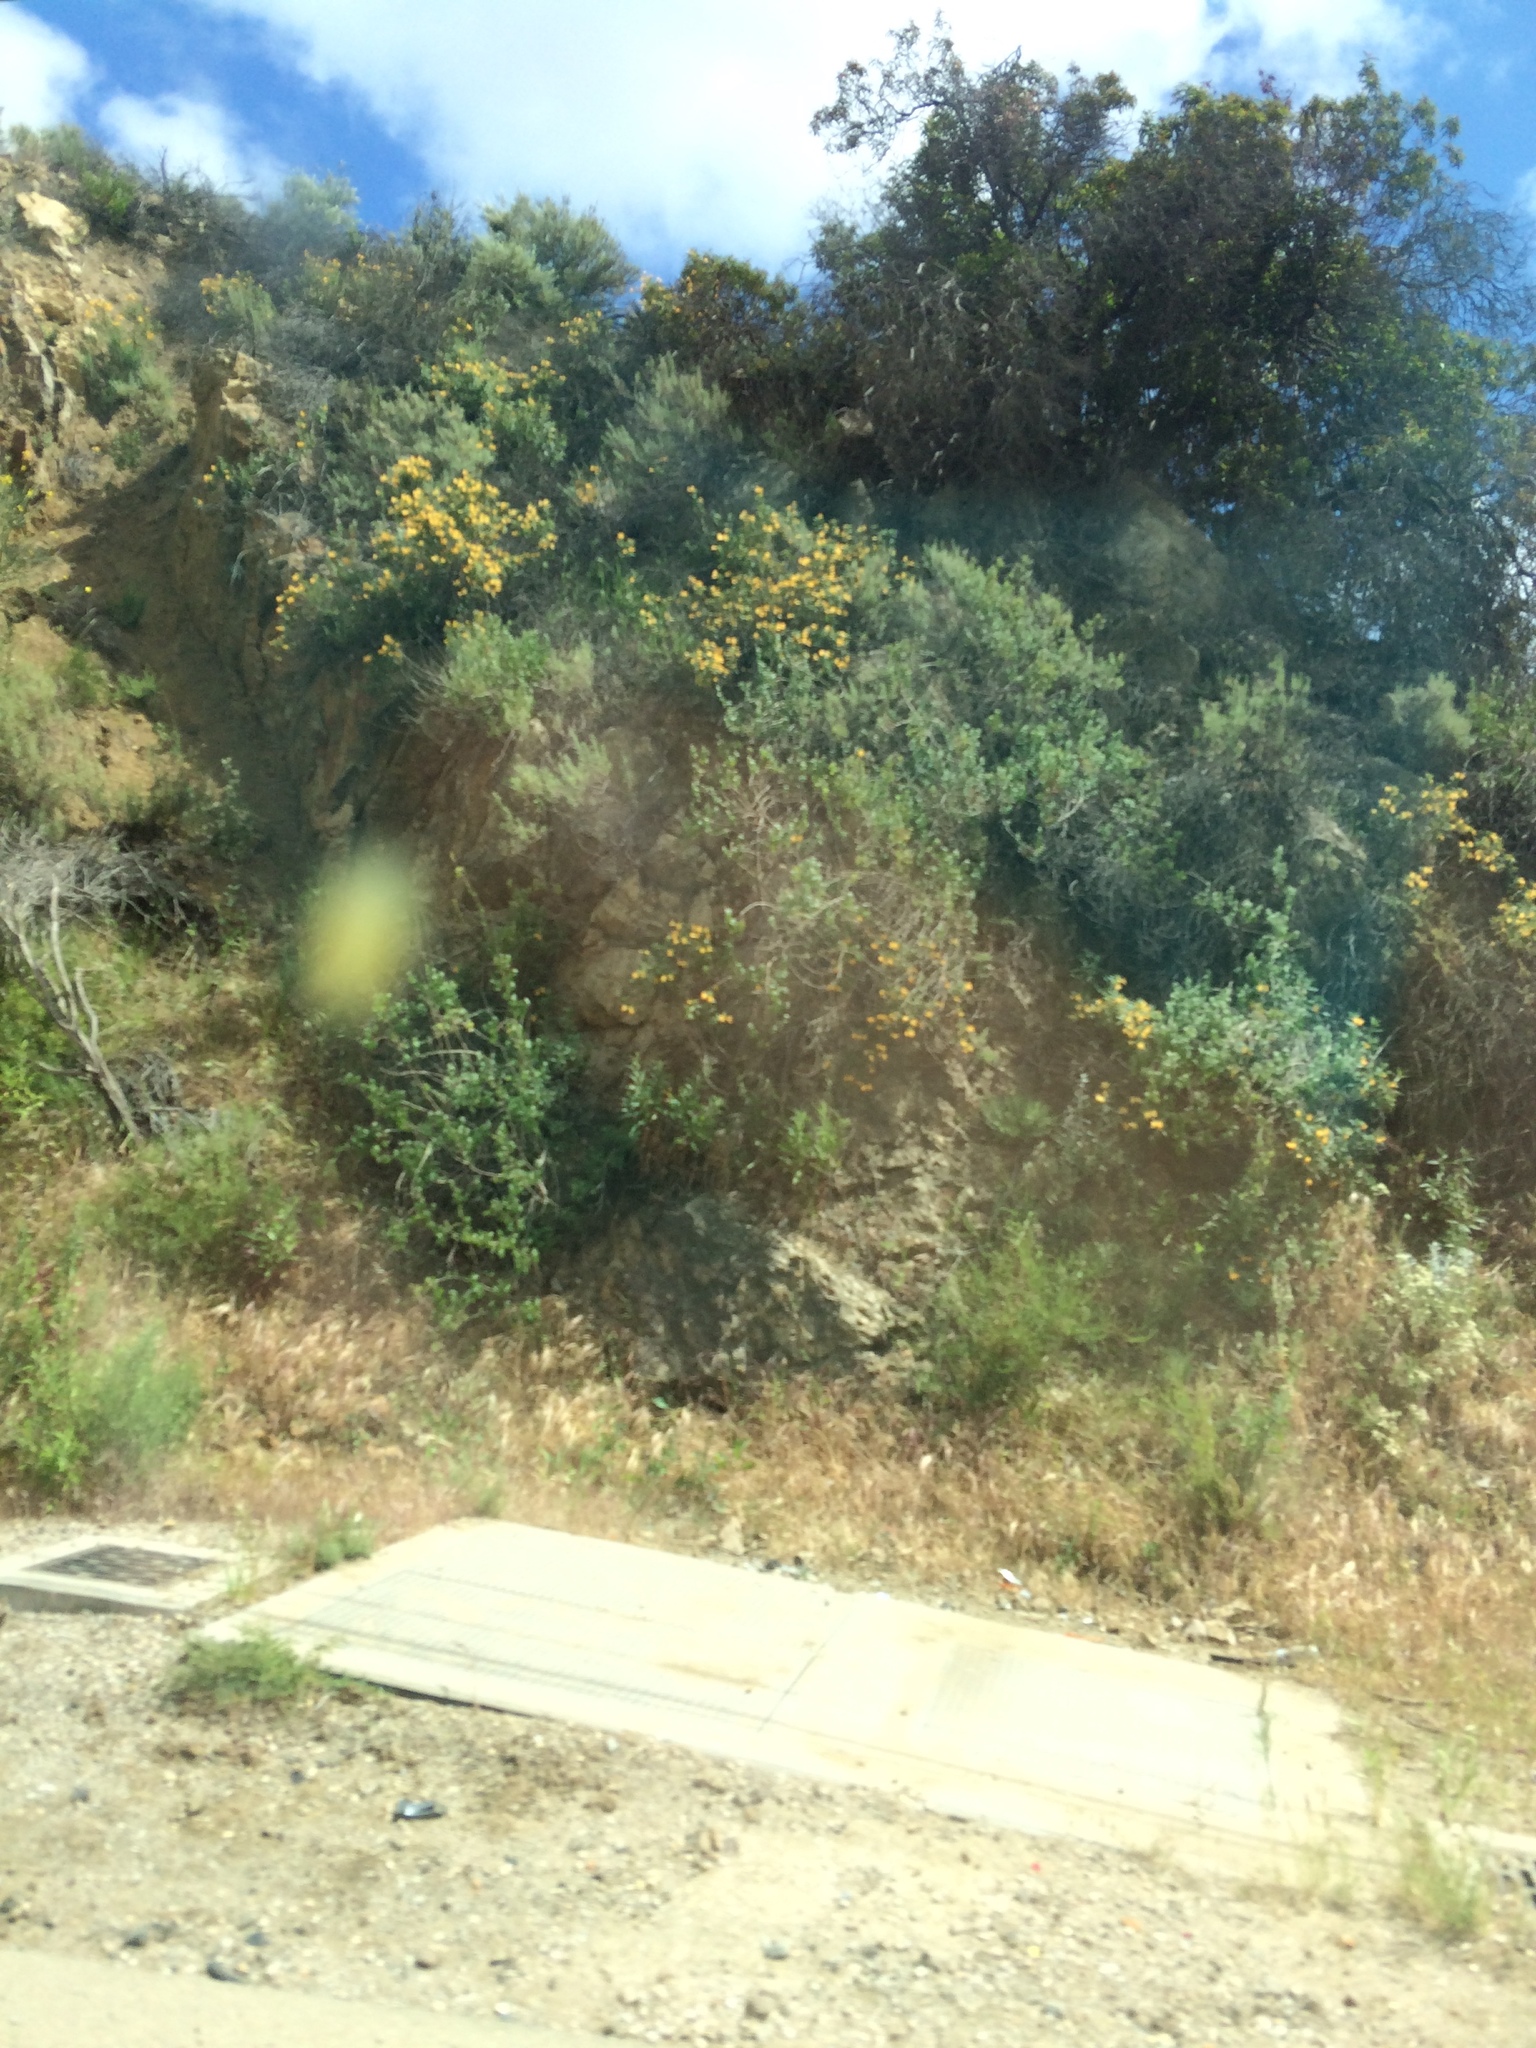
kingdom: Plantae
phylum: Tracheophyta
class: Magnoliopsida
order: Lamiales
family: Phrymaceae
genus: Diplacus
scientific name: Diplacus longiflorus
